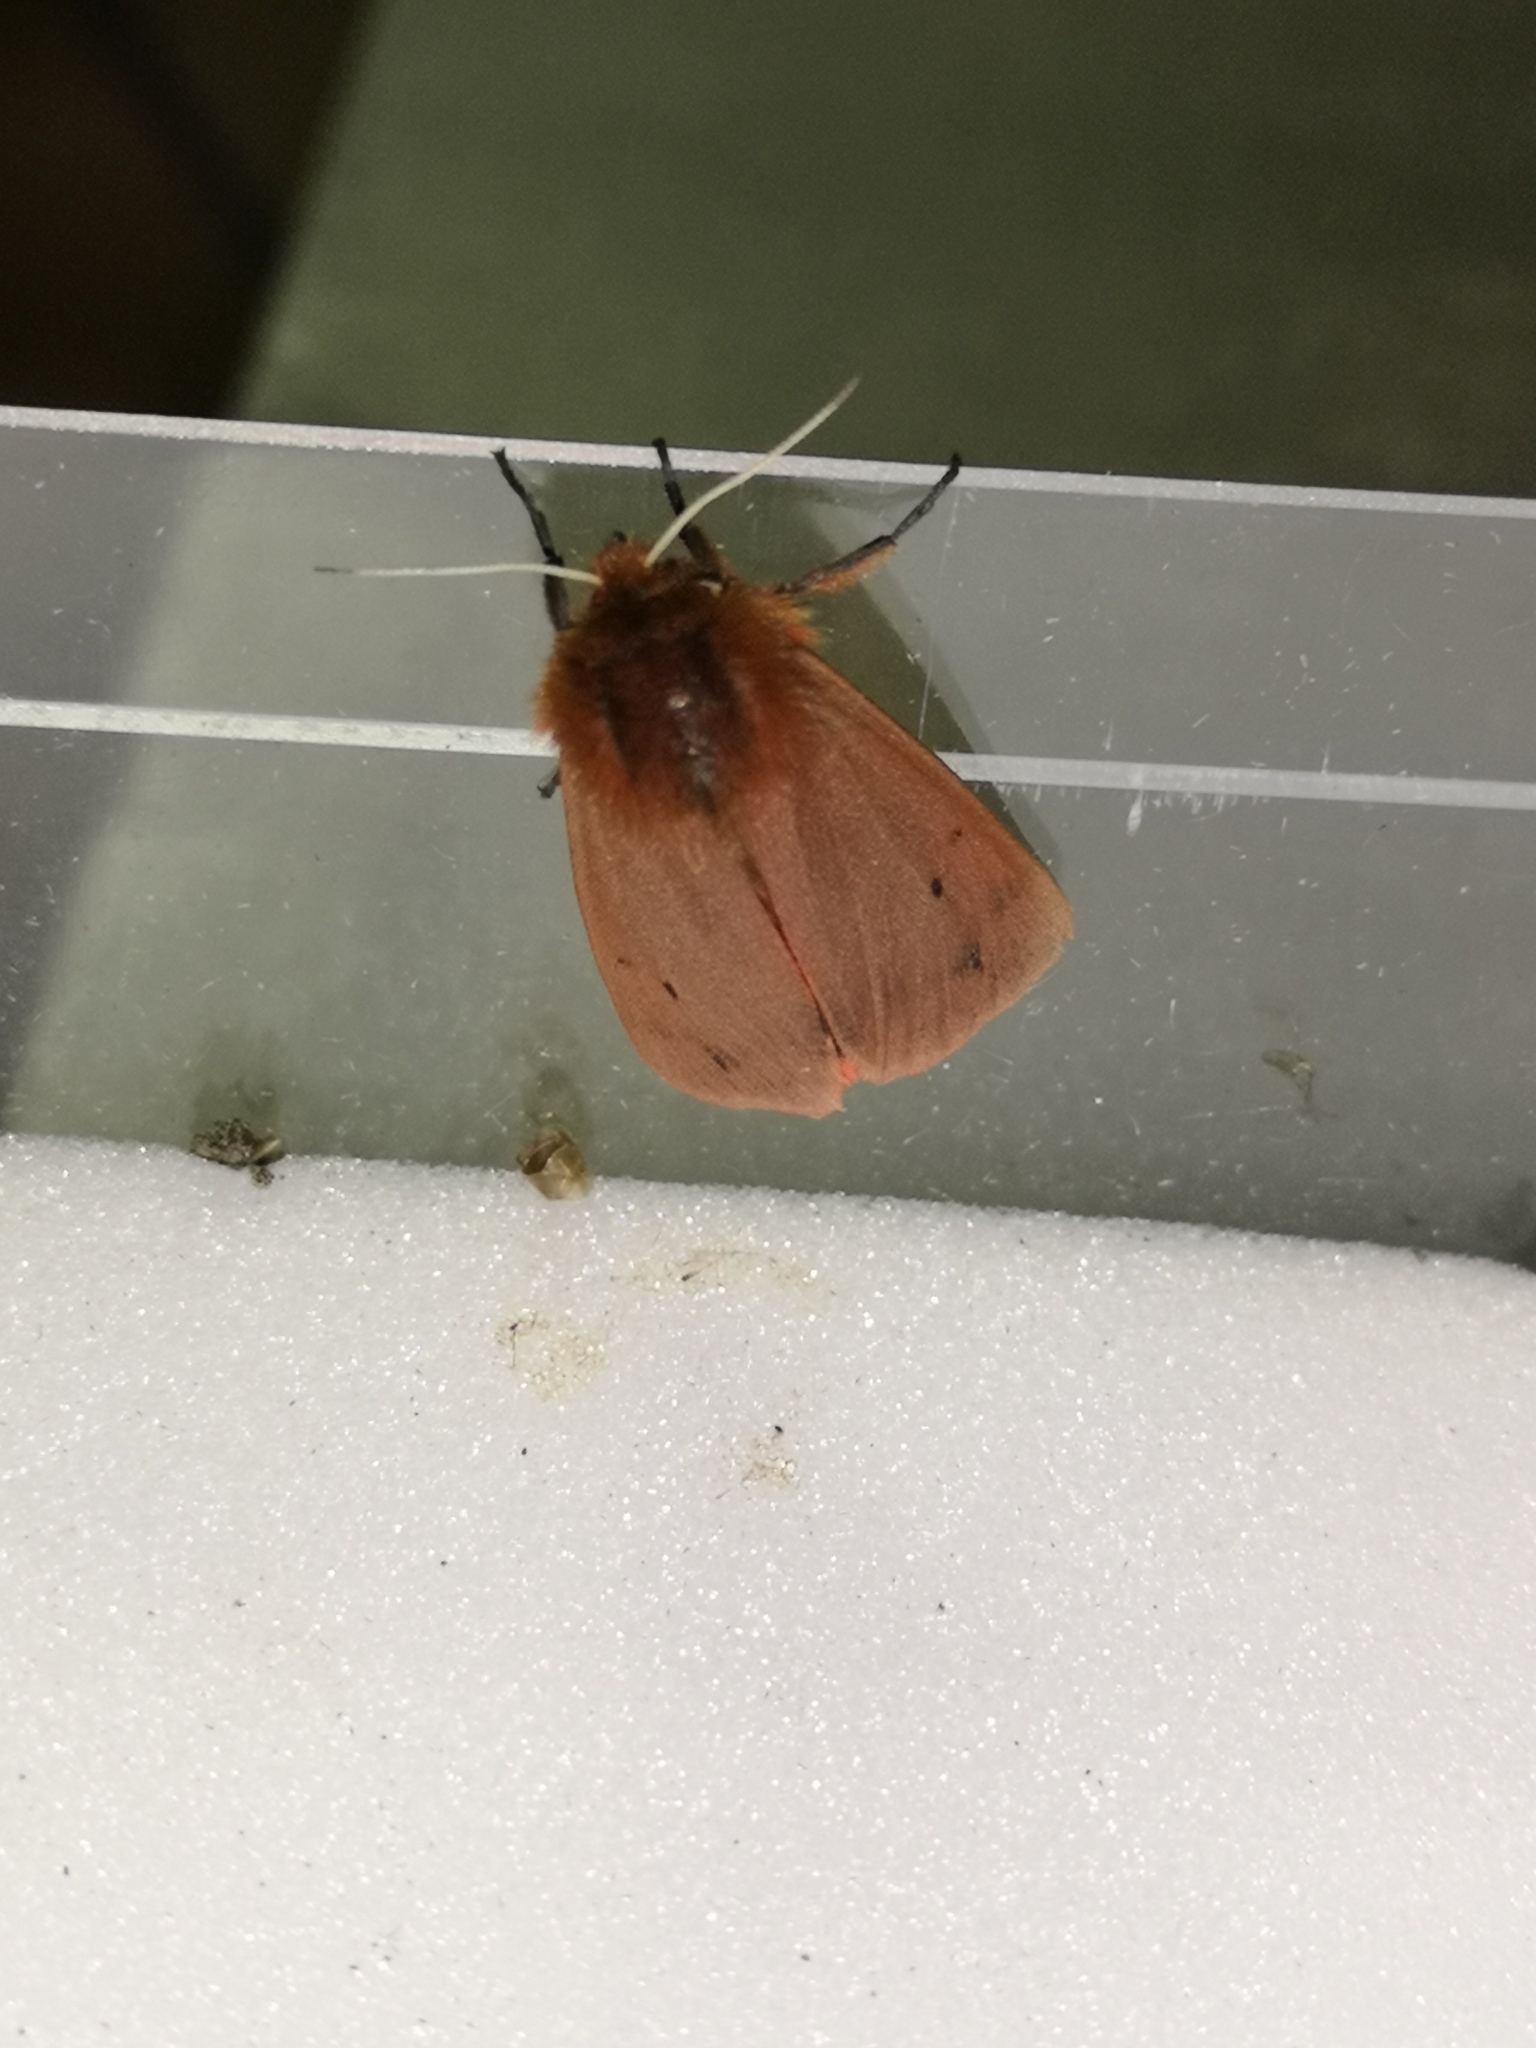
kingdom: Animalia
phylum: Arthropoda
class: Insecta
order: Lepidoptera
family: Erebidae
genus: Phragmatobia
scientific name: Phragmatobia fuliginosa
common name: Ruby tiger
